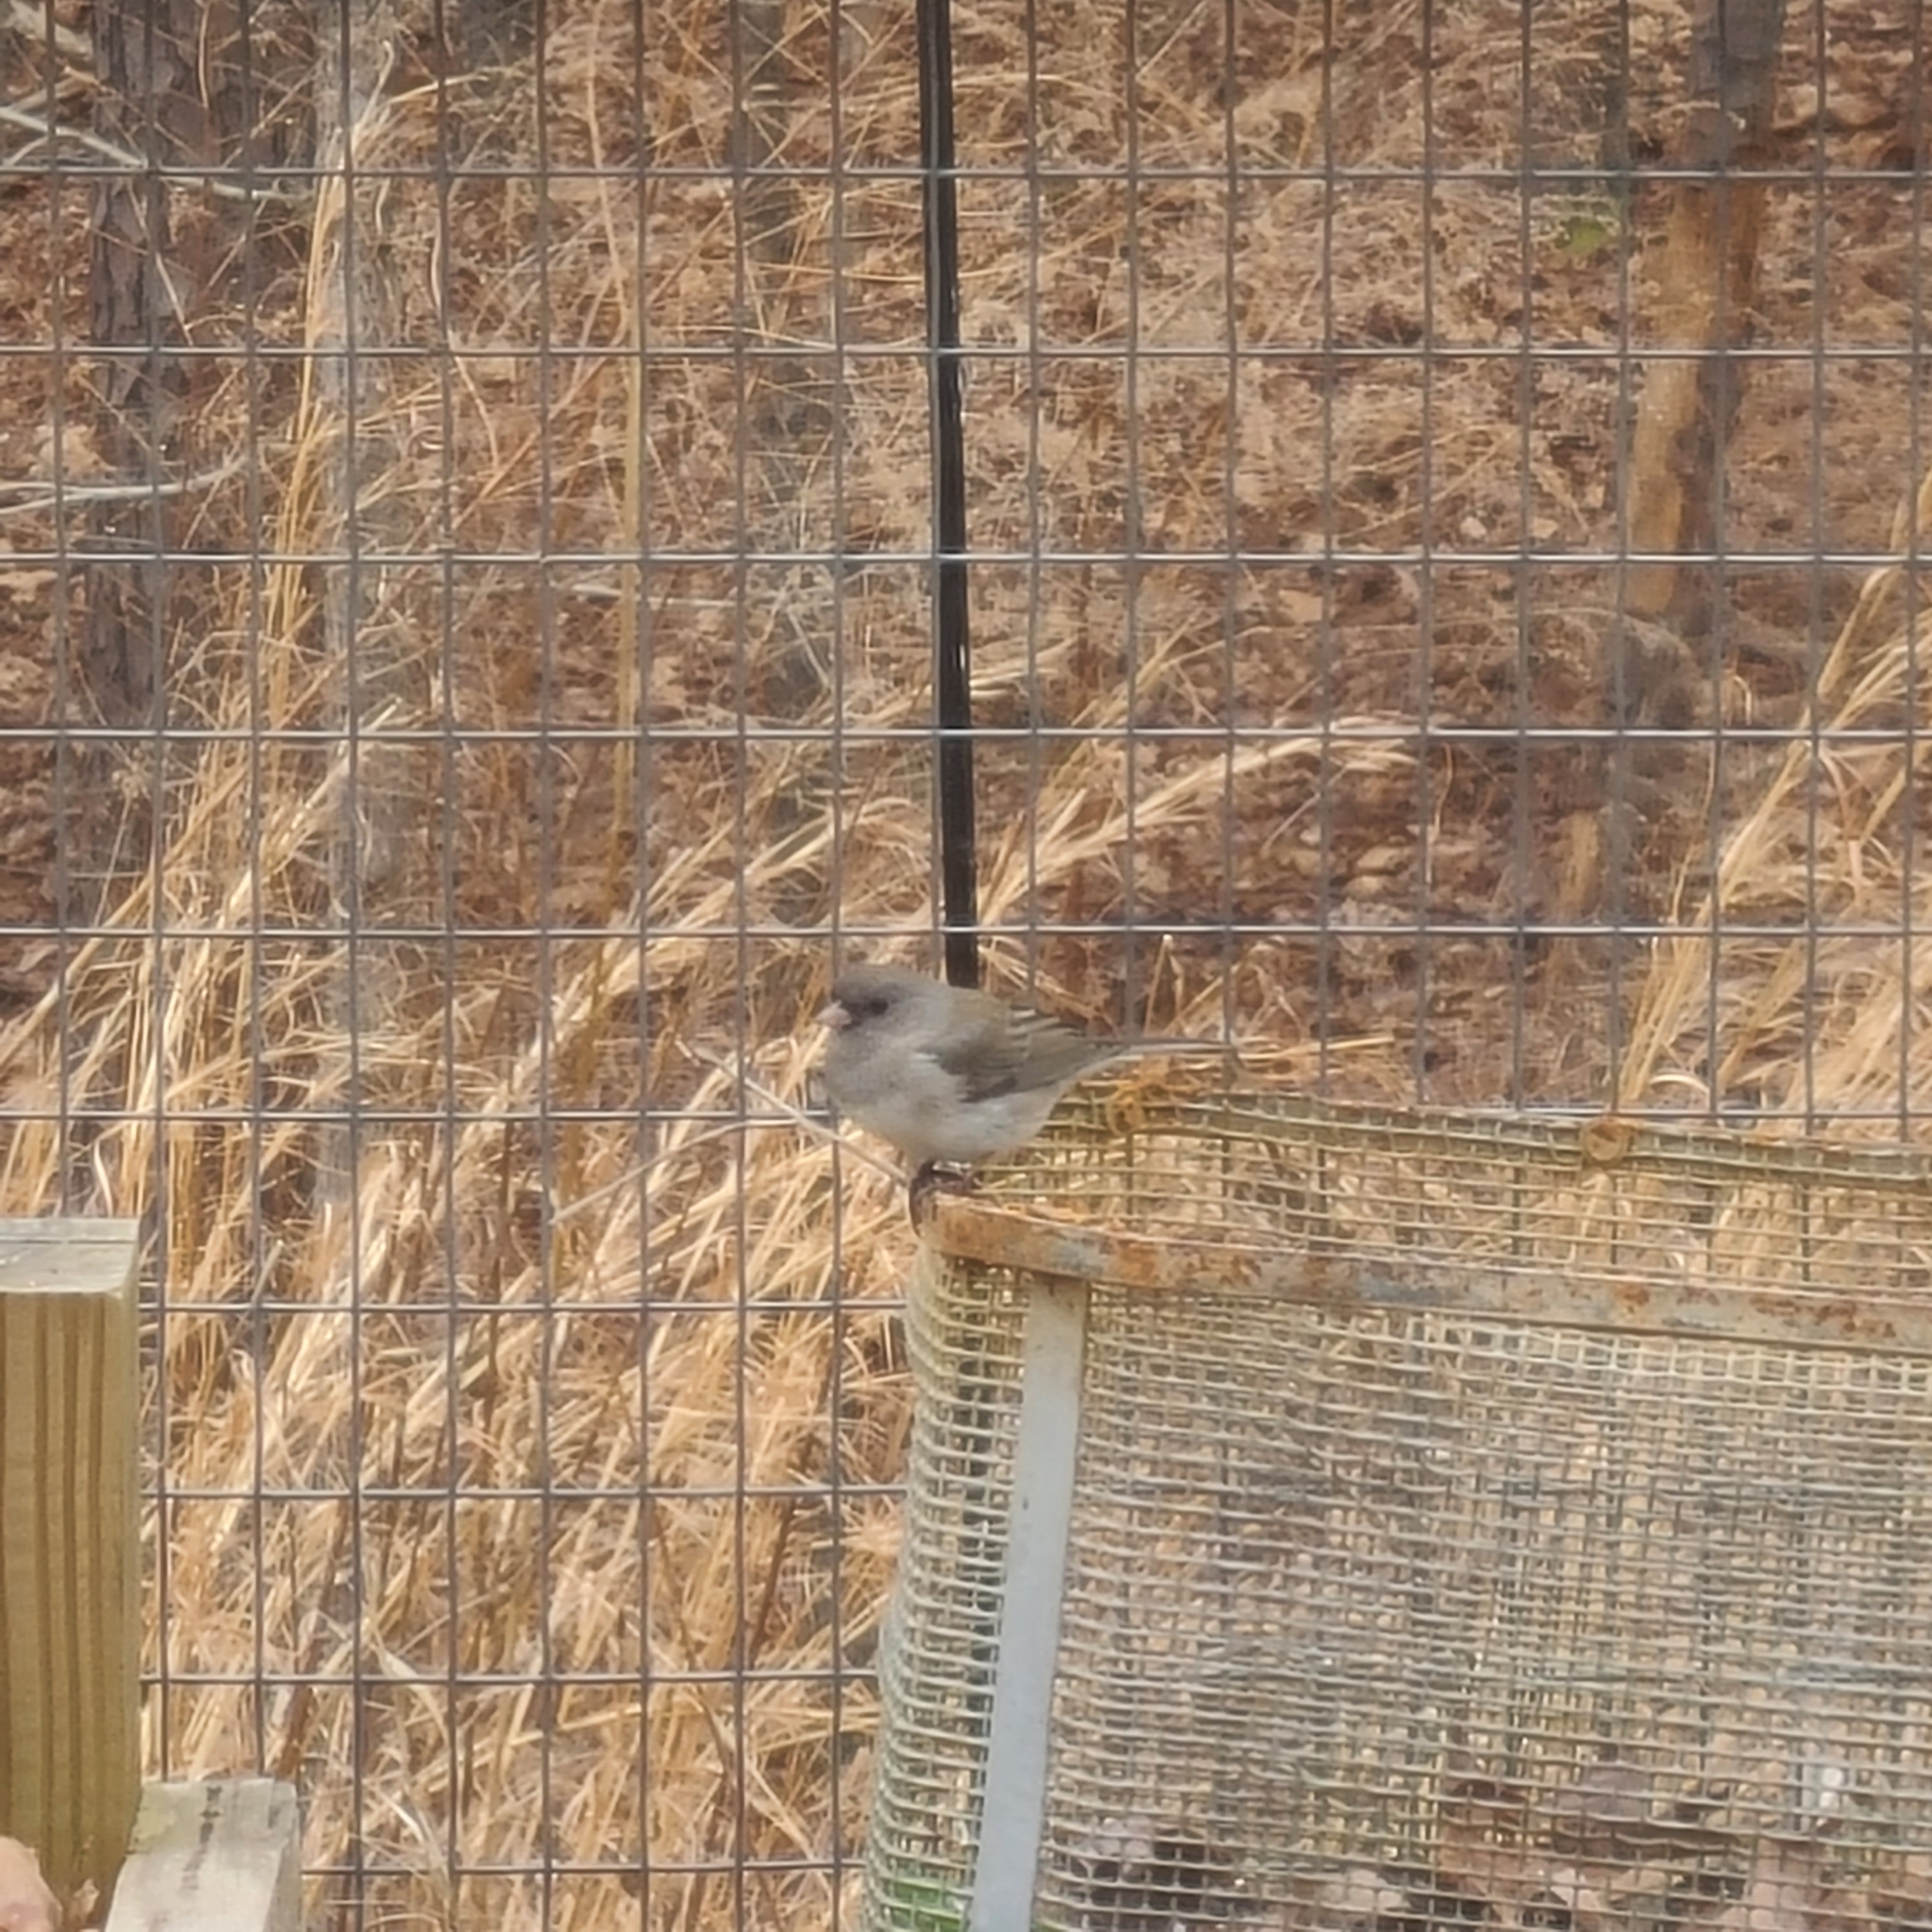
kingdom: Animalia
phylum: Chordata
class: Aves
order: Passeriformes
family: Passerellidae
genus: Junco
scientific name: Junco hyemalis
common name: Dark-eyed junco
